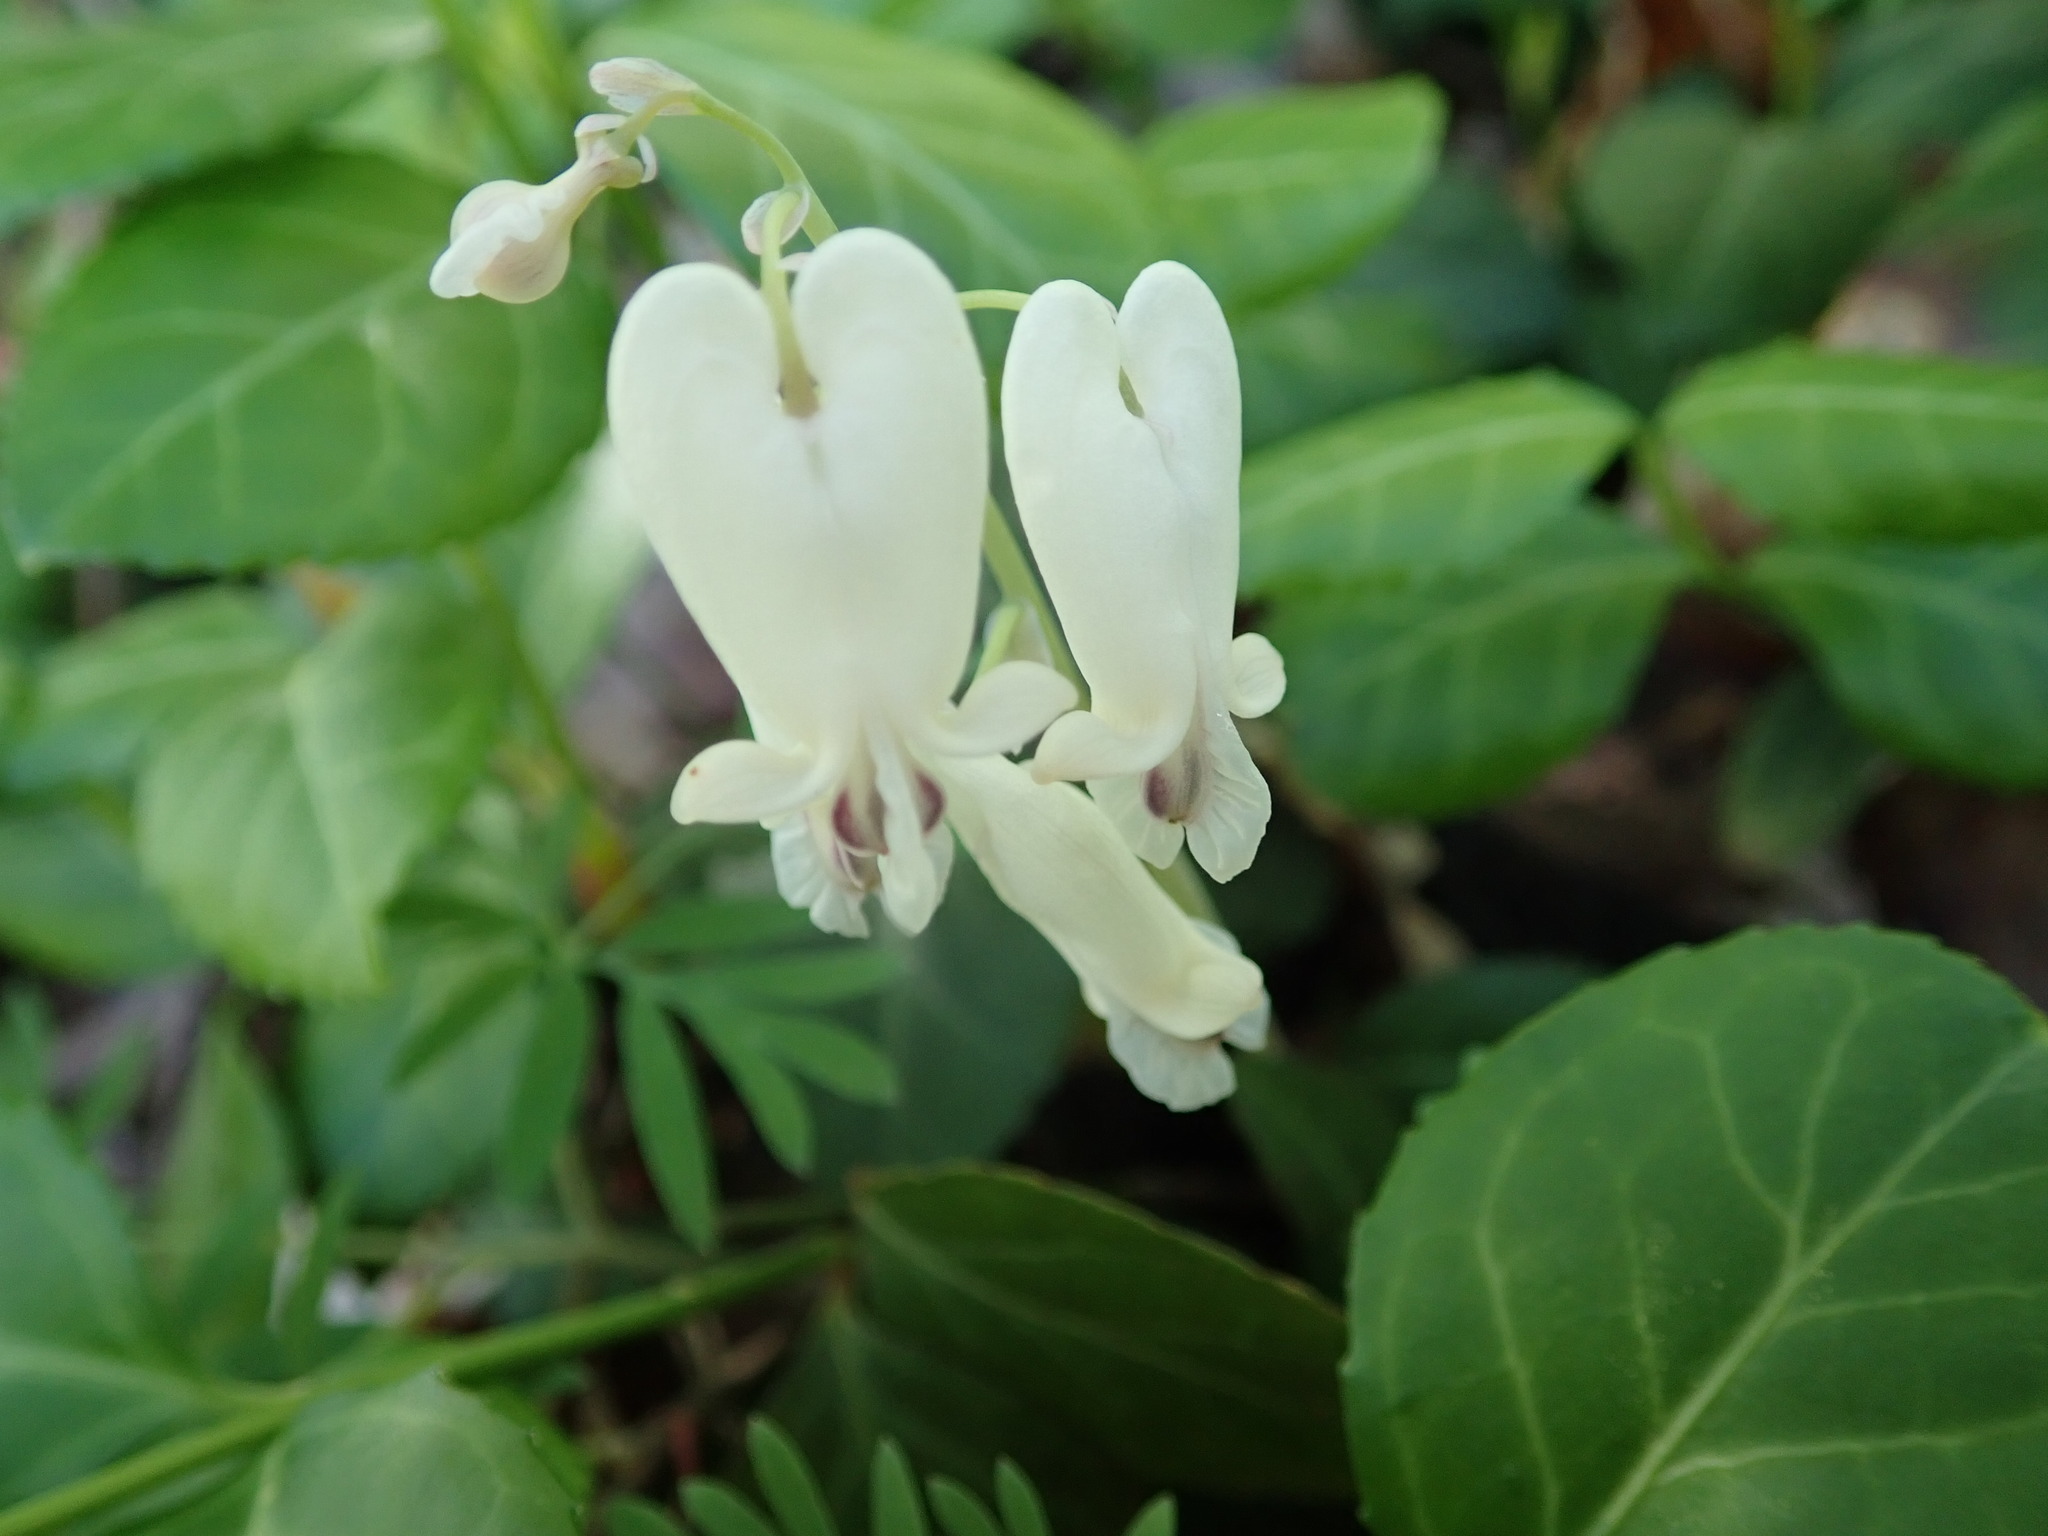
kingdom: Plantae
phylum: Tracheophyta
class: Magnoliopsida
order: Ranunculales
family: Papaveraceae
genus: Dicentra
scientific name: Dicentra canadensis
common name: Squirrel-corn
